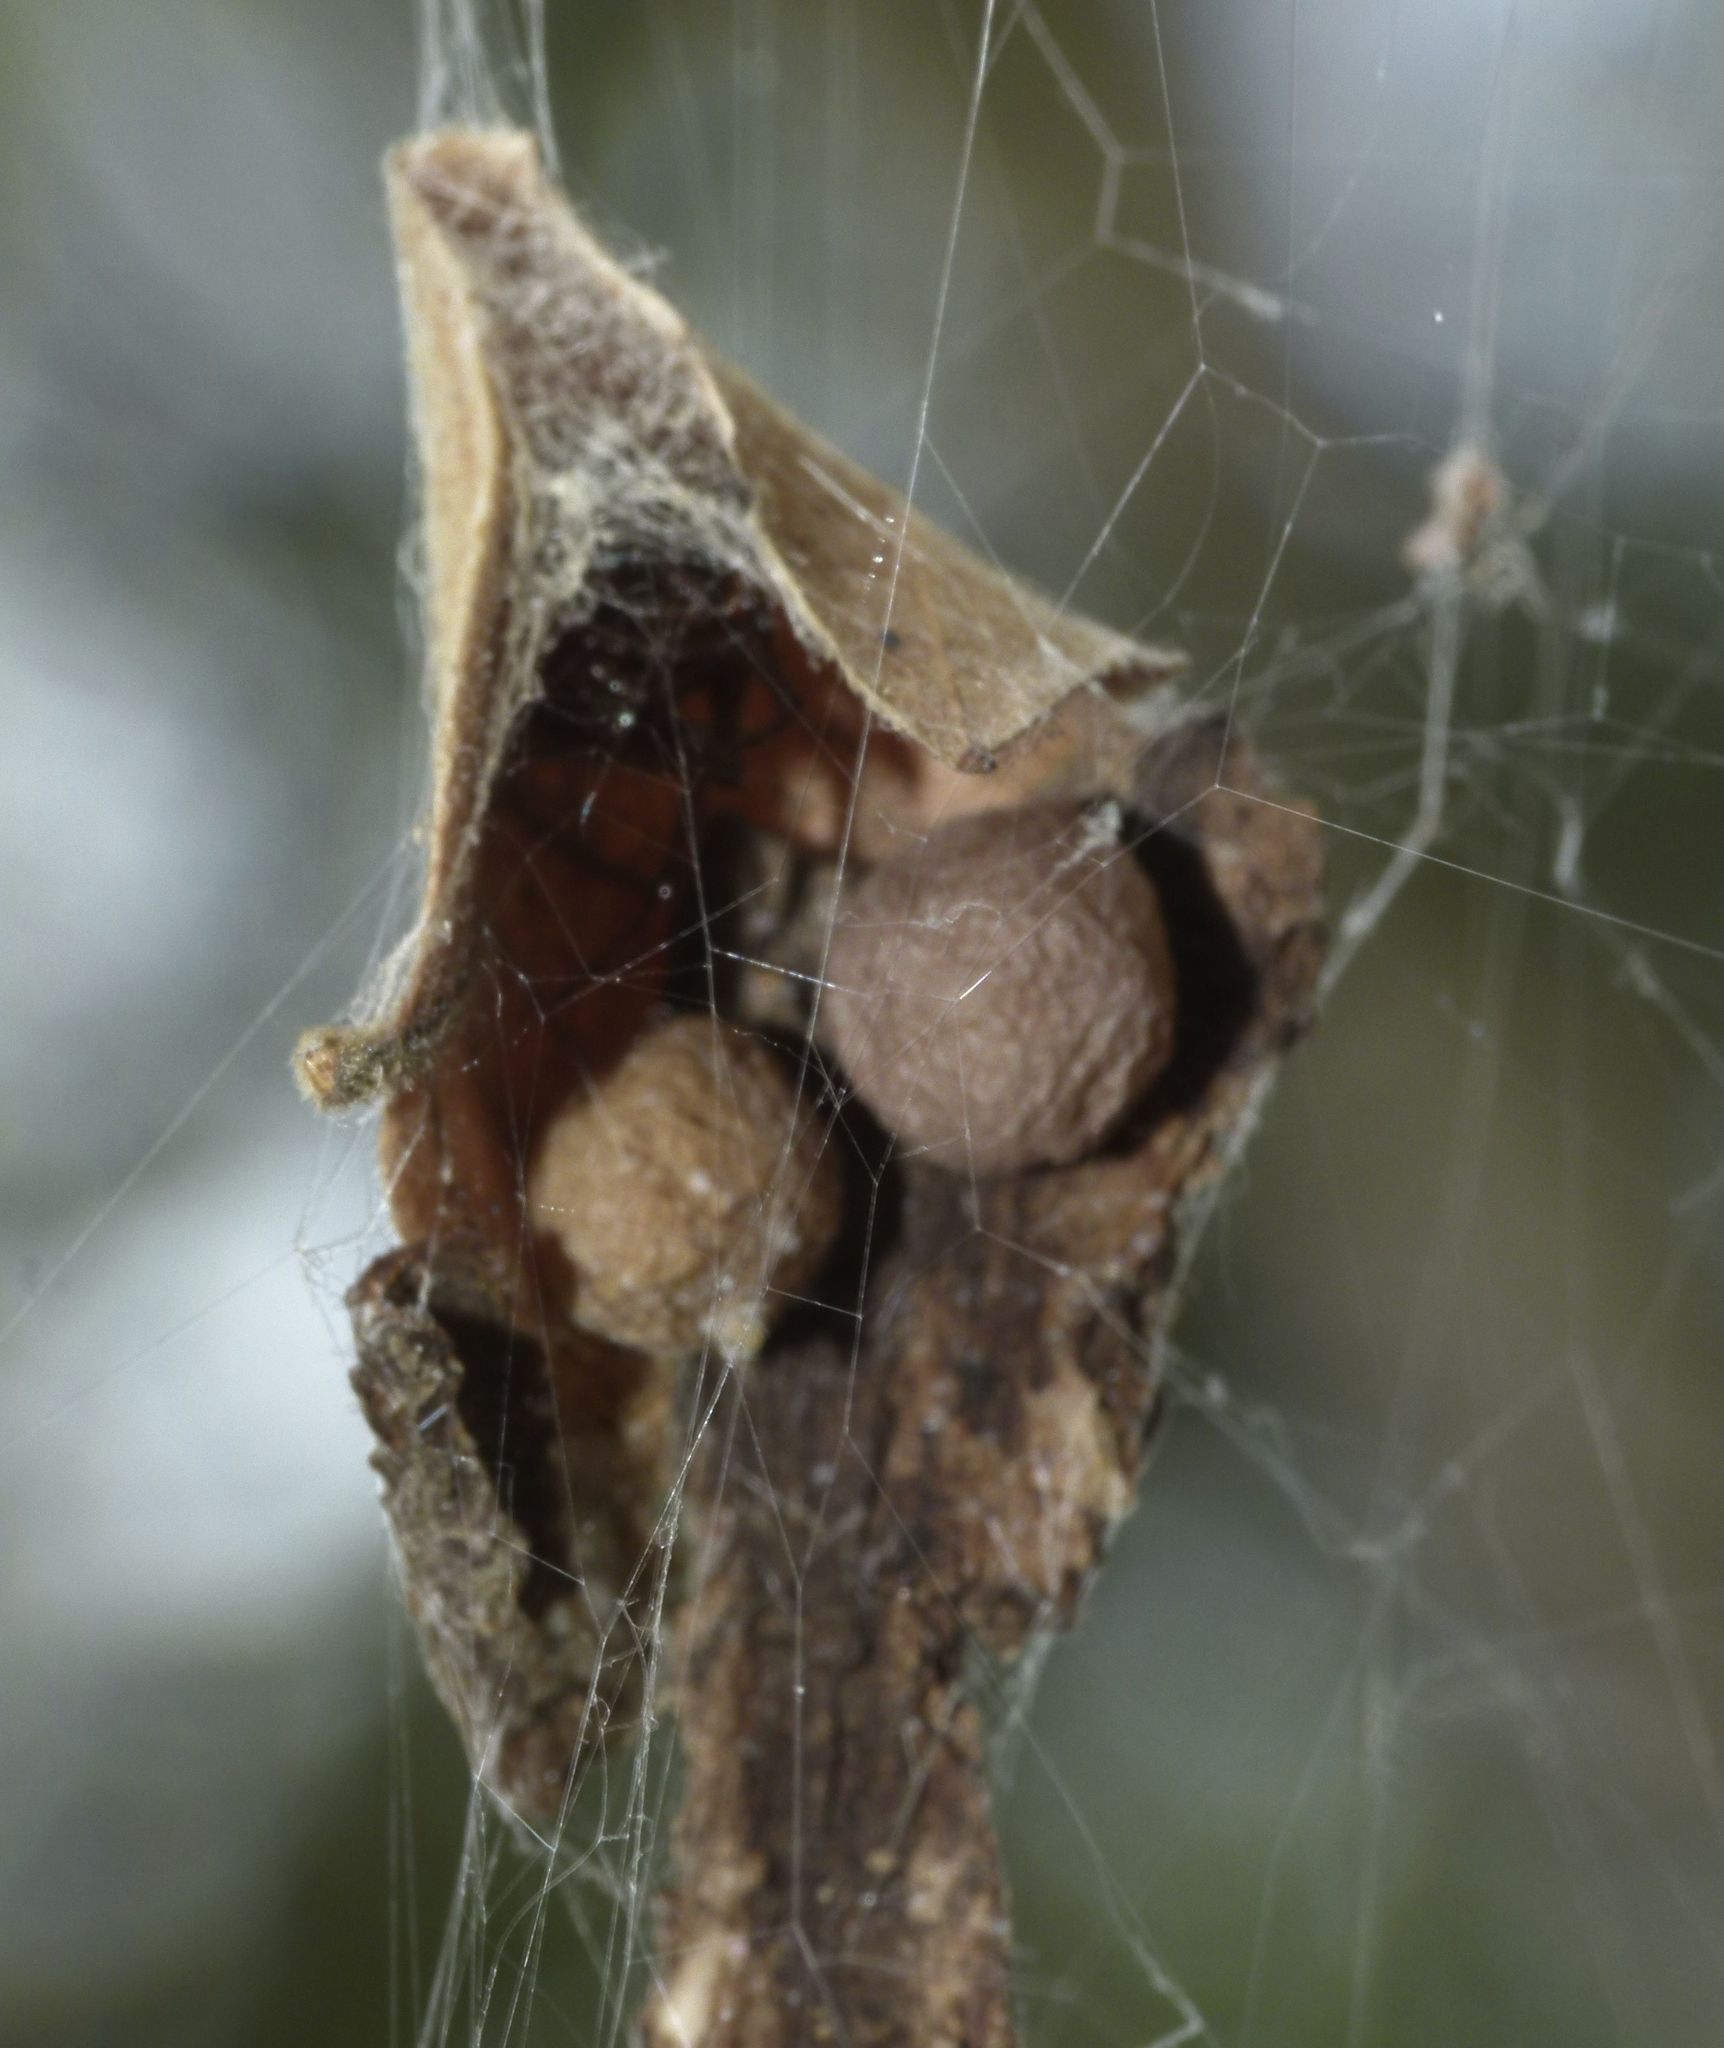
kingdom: Animalia
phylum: Arthropoda
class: Arachnida
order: Araneae
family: Theridiidae
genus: Parasteatoda
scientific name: Parasteatoda decorata
